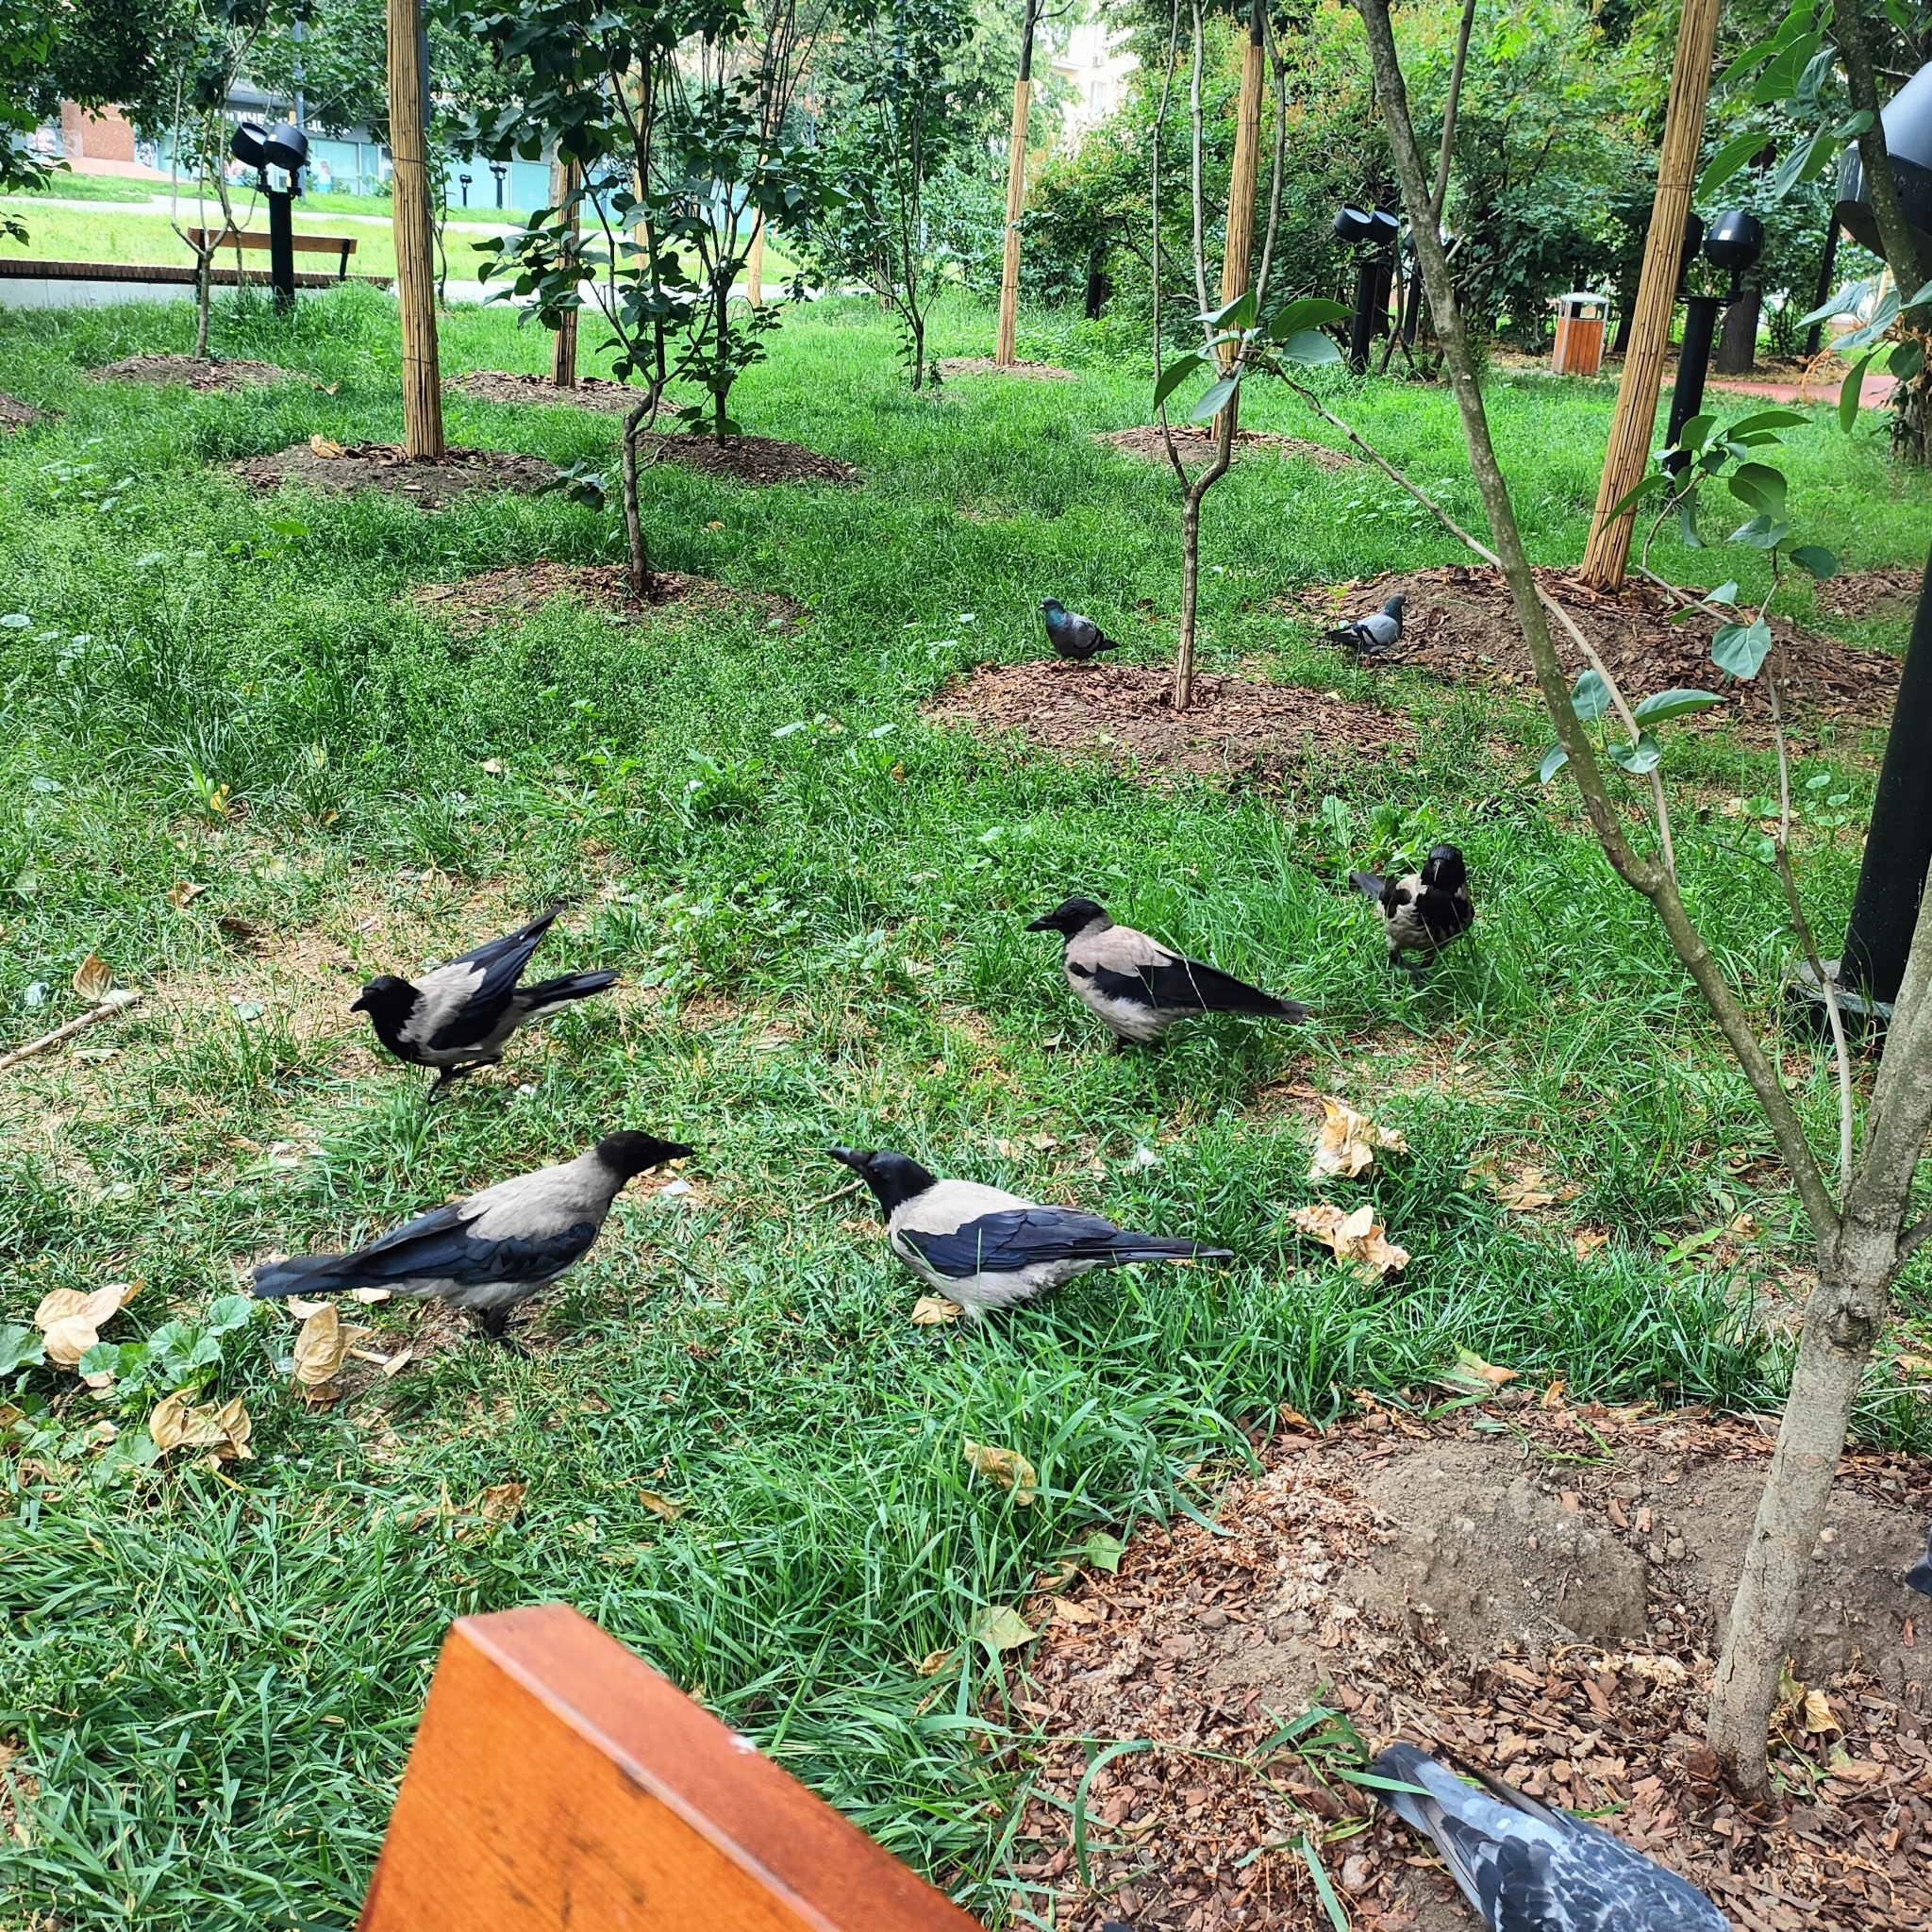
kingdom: Animalia
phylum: Chordata
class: Aves
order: Passeriformes
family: Corvidae
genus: Corvus
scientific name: Corvus cornix
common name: Hooded crow
